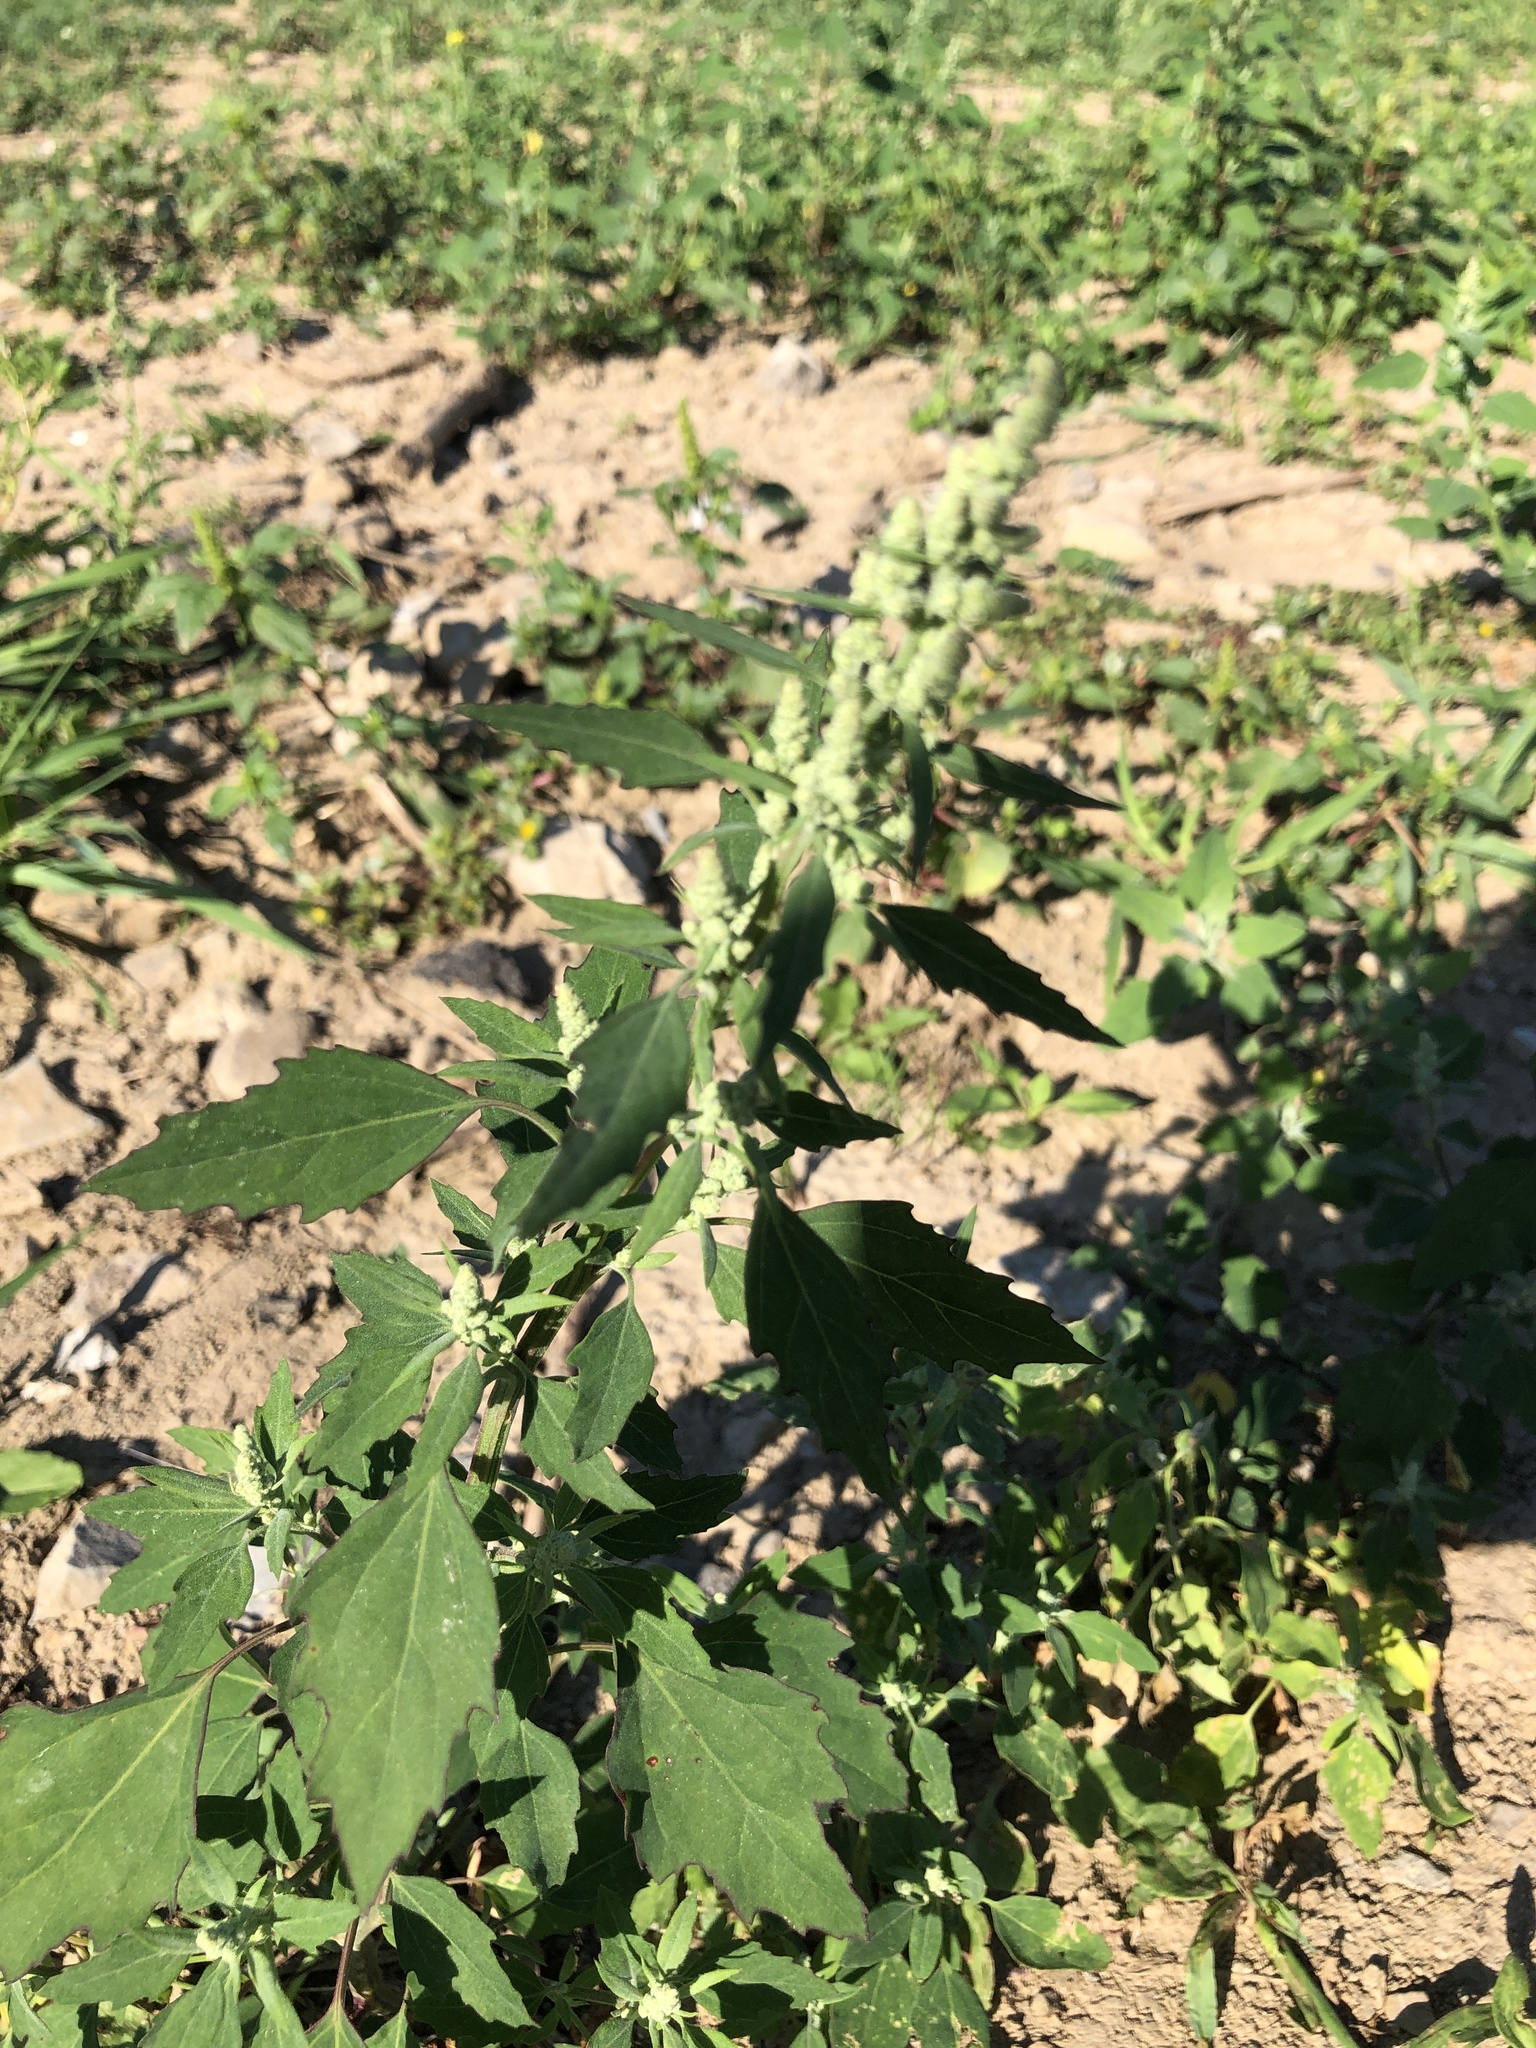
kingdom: Plantae
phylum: Tracheophyta
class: Magnoliopsida
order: Caryophyllales
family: Amaranthaceae
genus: Chenopodium
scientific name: Chenopodium album
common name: Fat-hen
